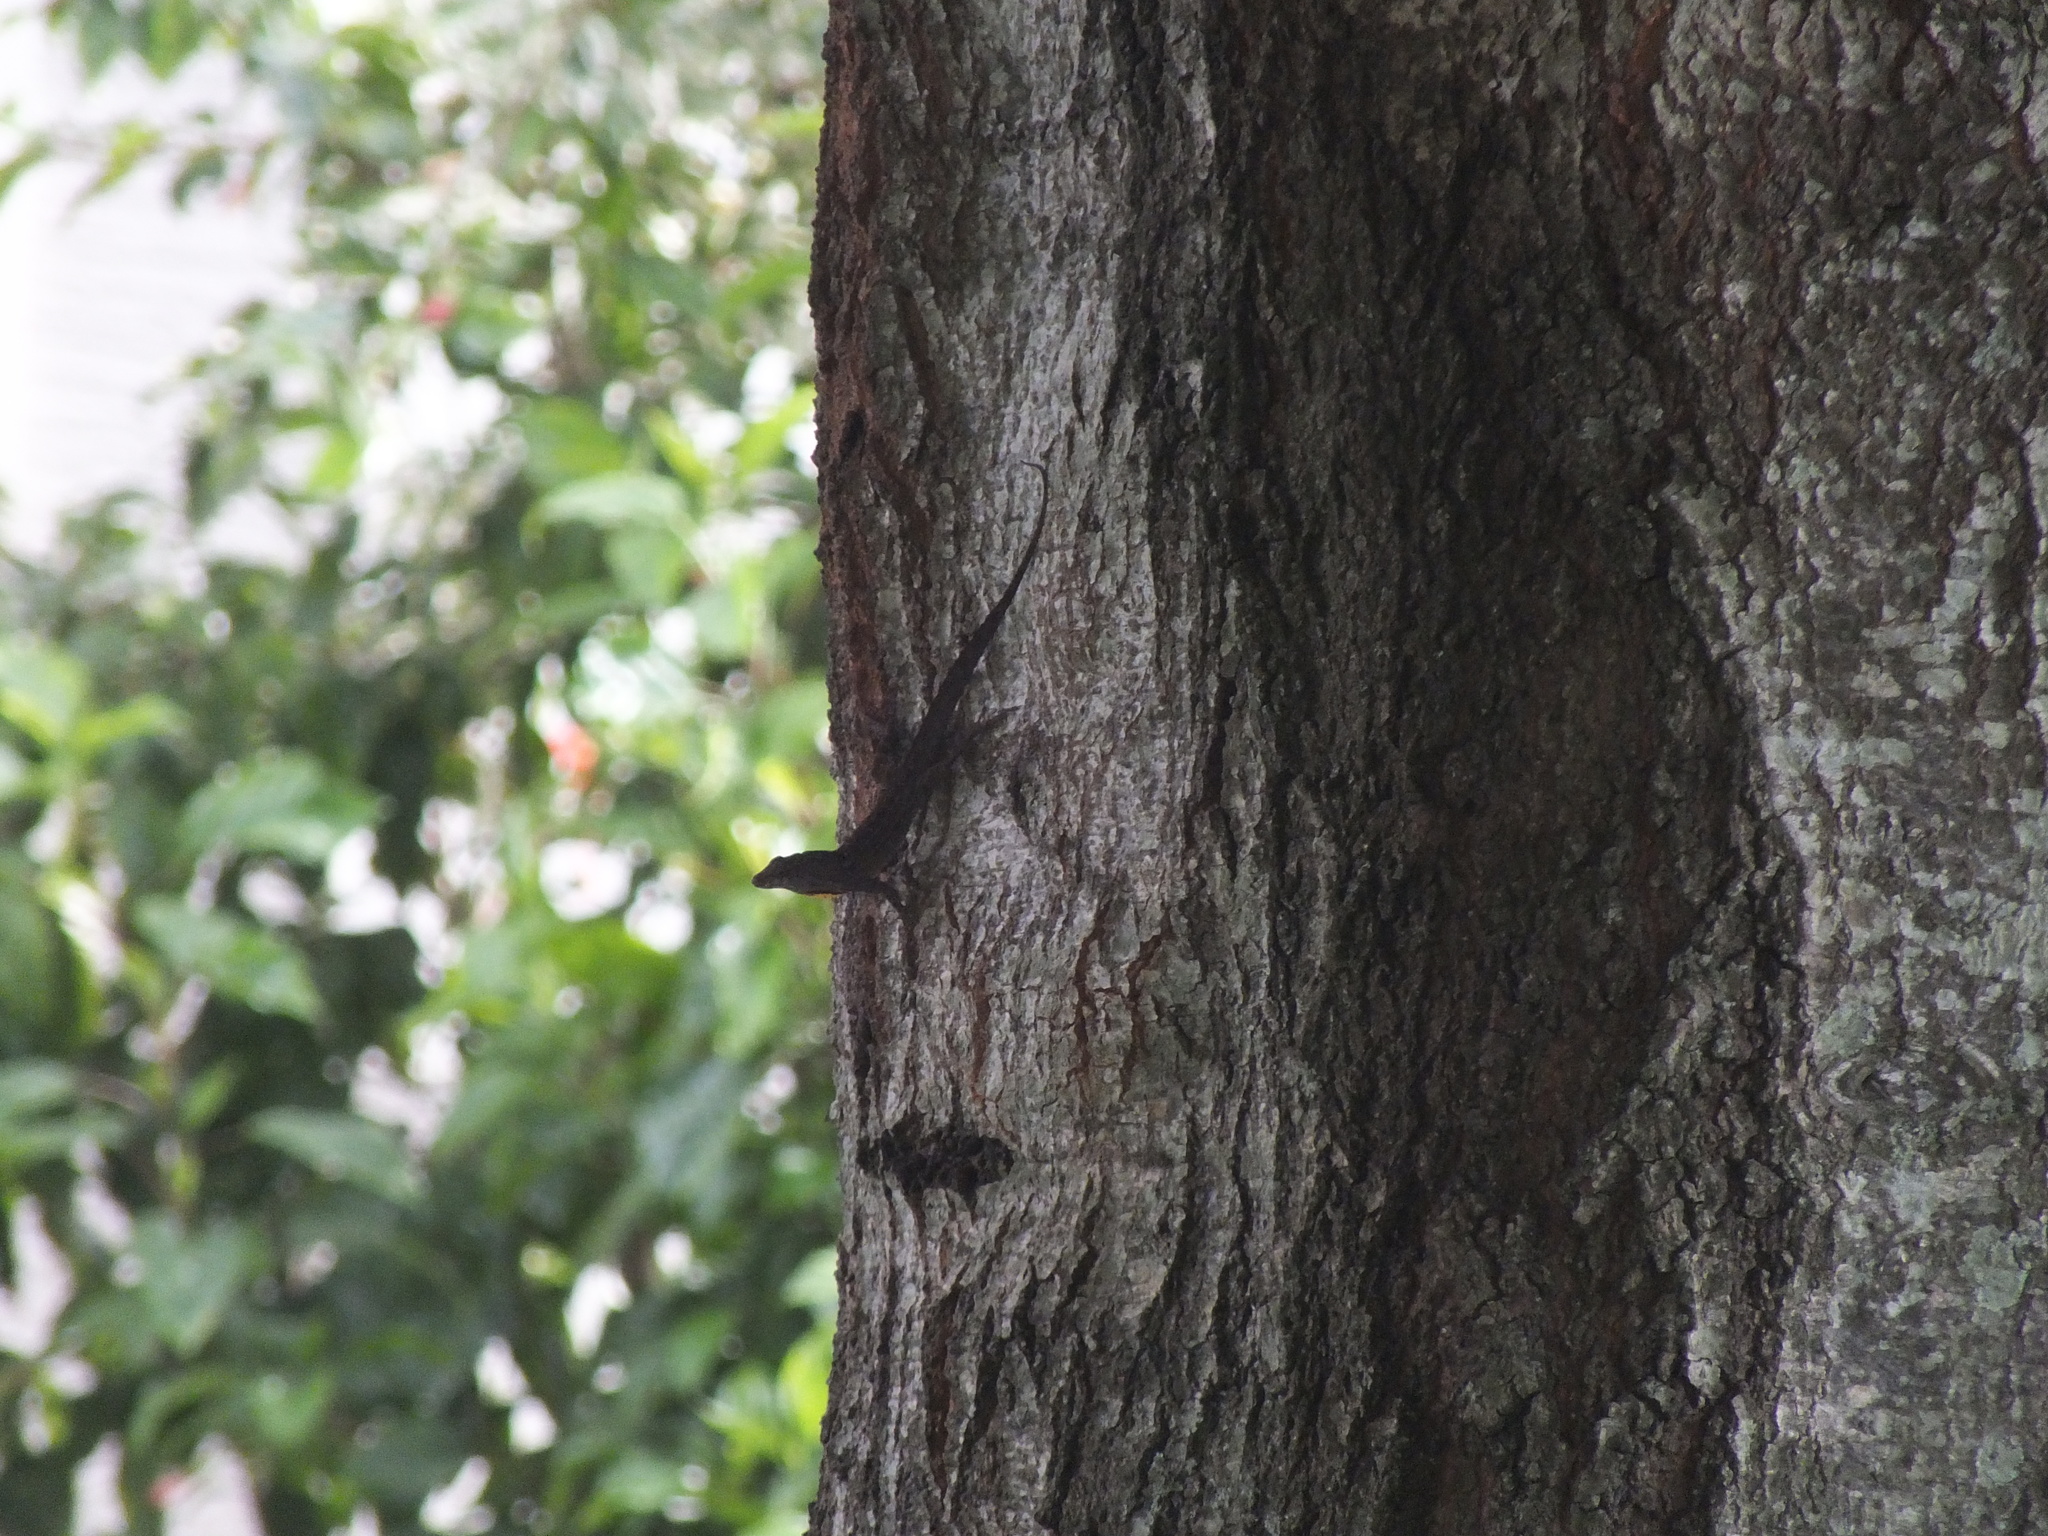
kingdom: Animalia
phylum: Chordata
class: Squamata
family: Dactyloidae
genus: Anolis
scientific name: Anolis sagrei
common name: Brown anole
